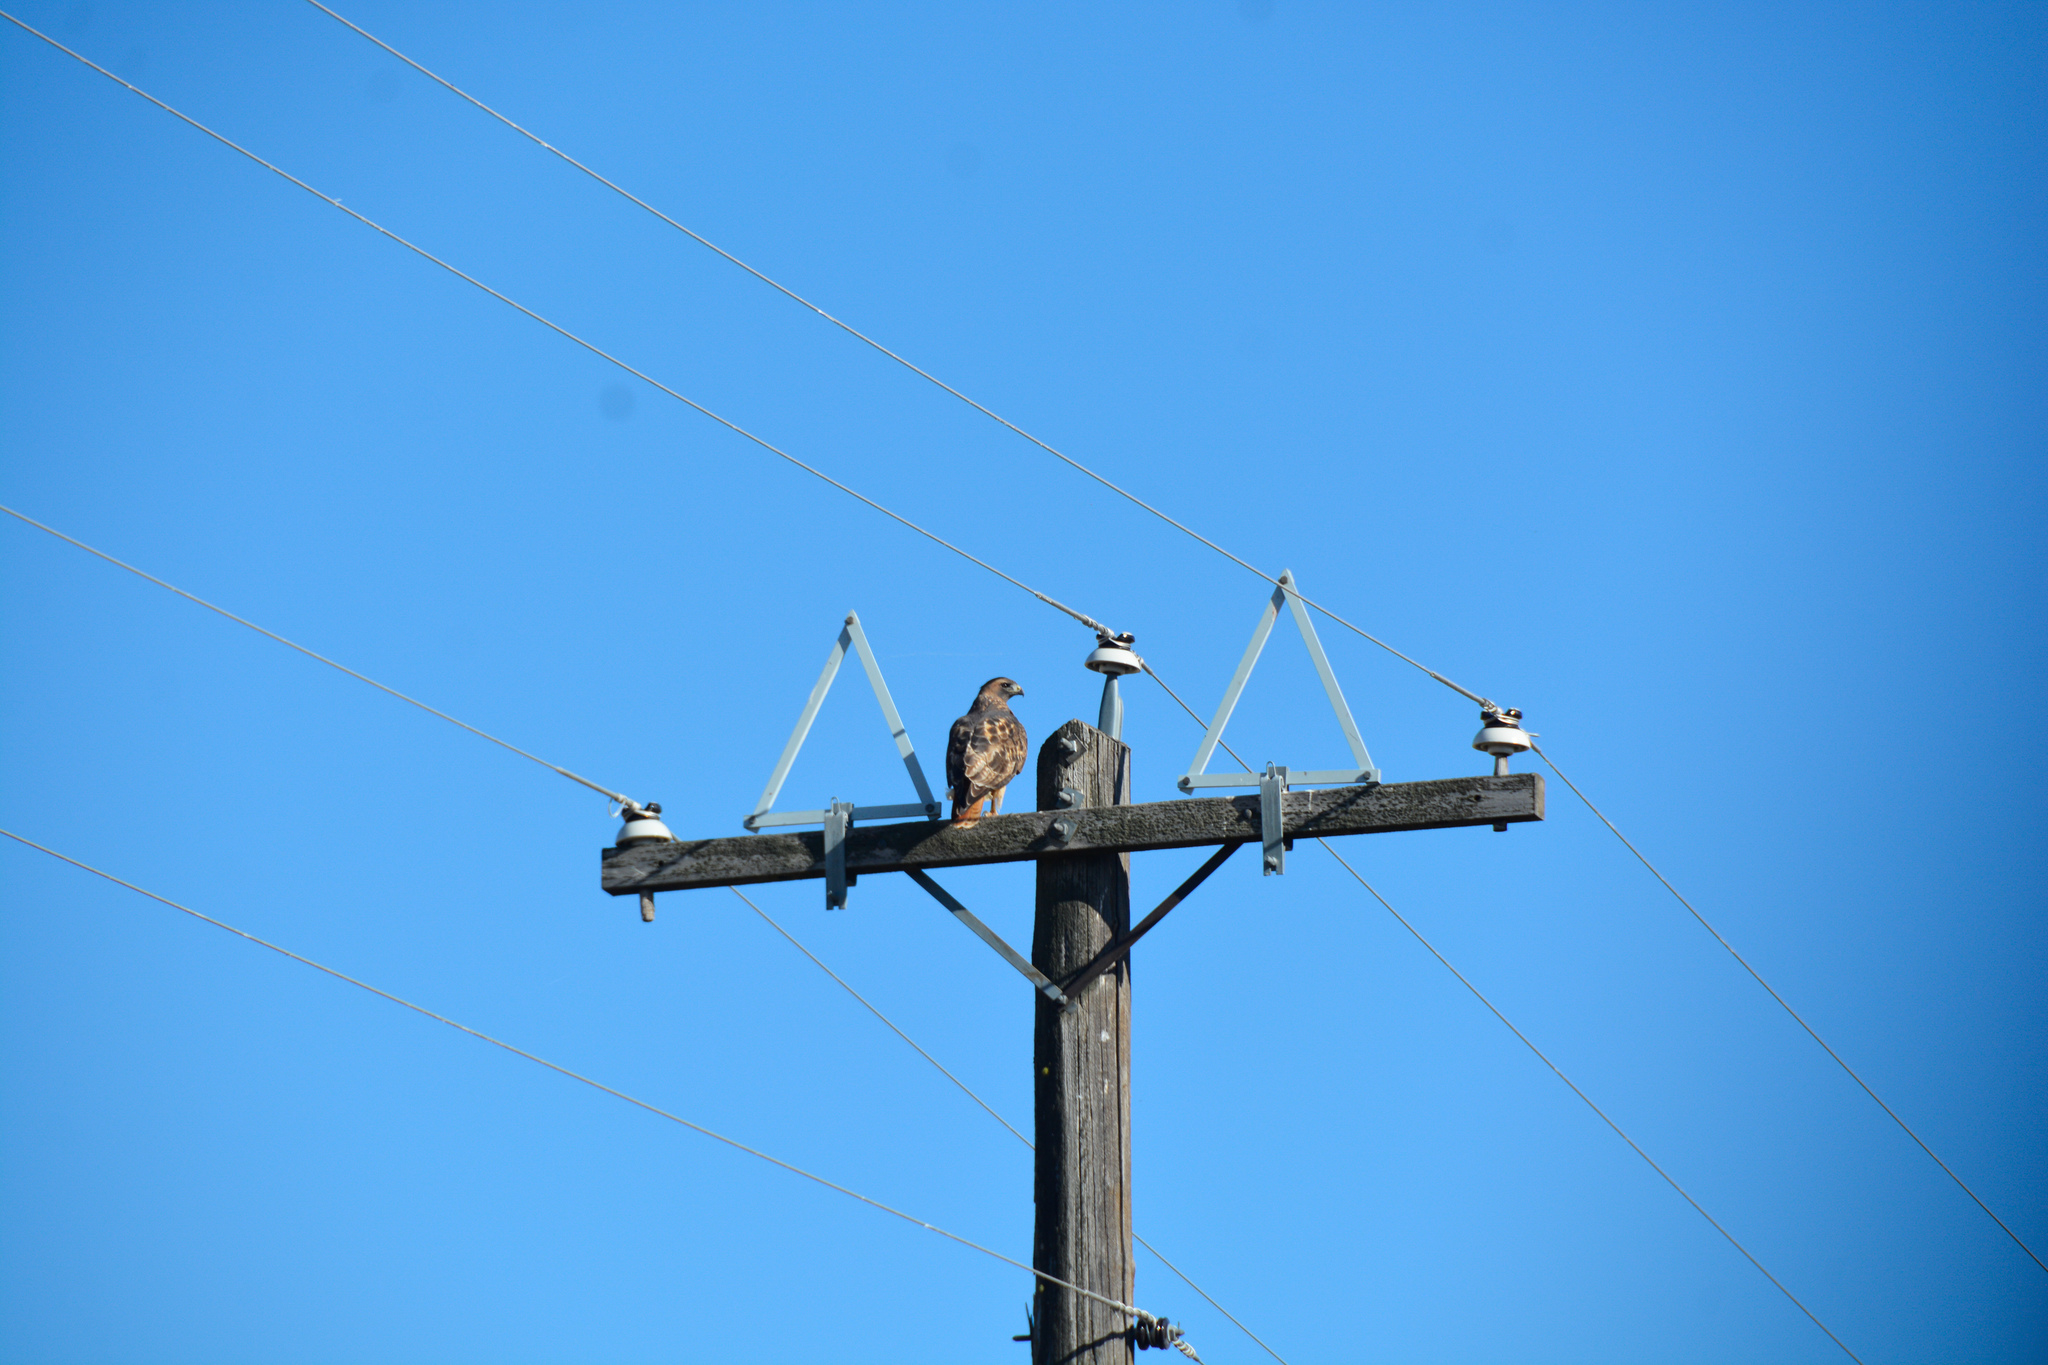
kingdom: Animalia
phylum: Chordata
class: Aves
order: Accipitriformes
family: Accipitridae
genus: Buteo
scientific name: Buteo jamaicensis
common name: Red-tailed hawk
